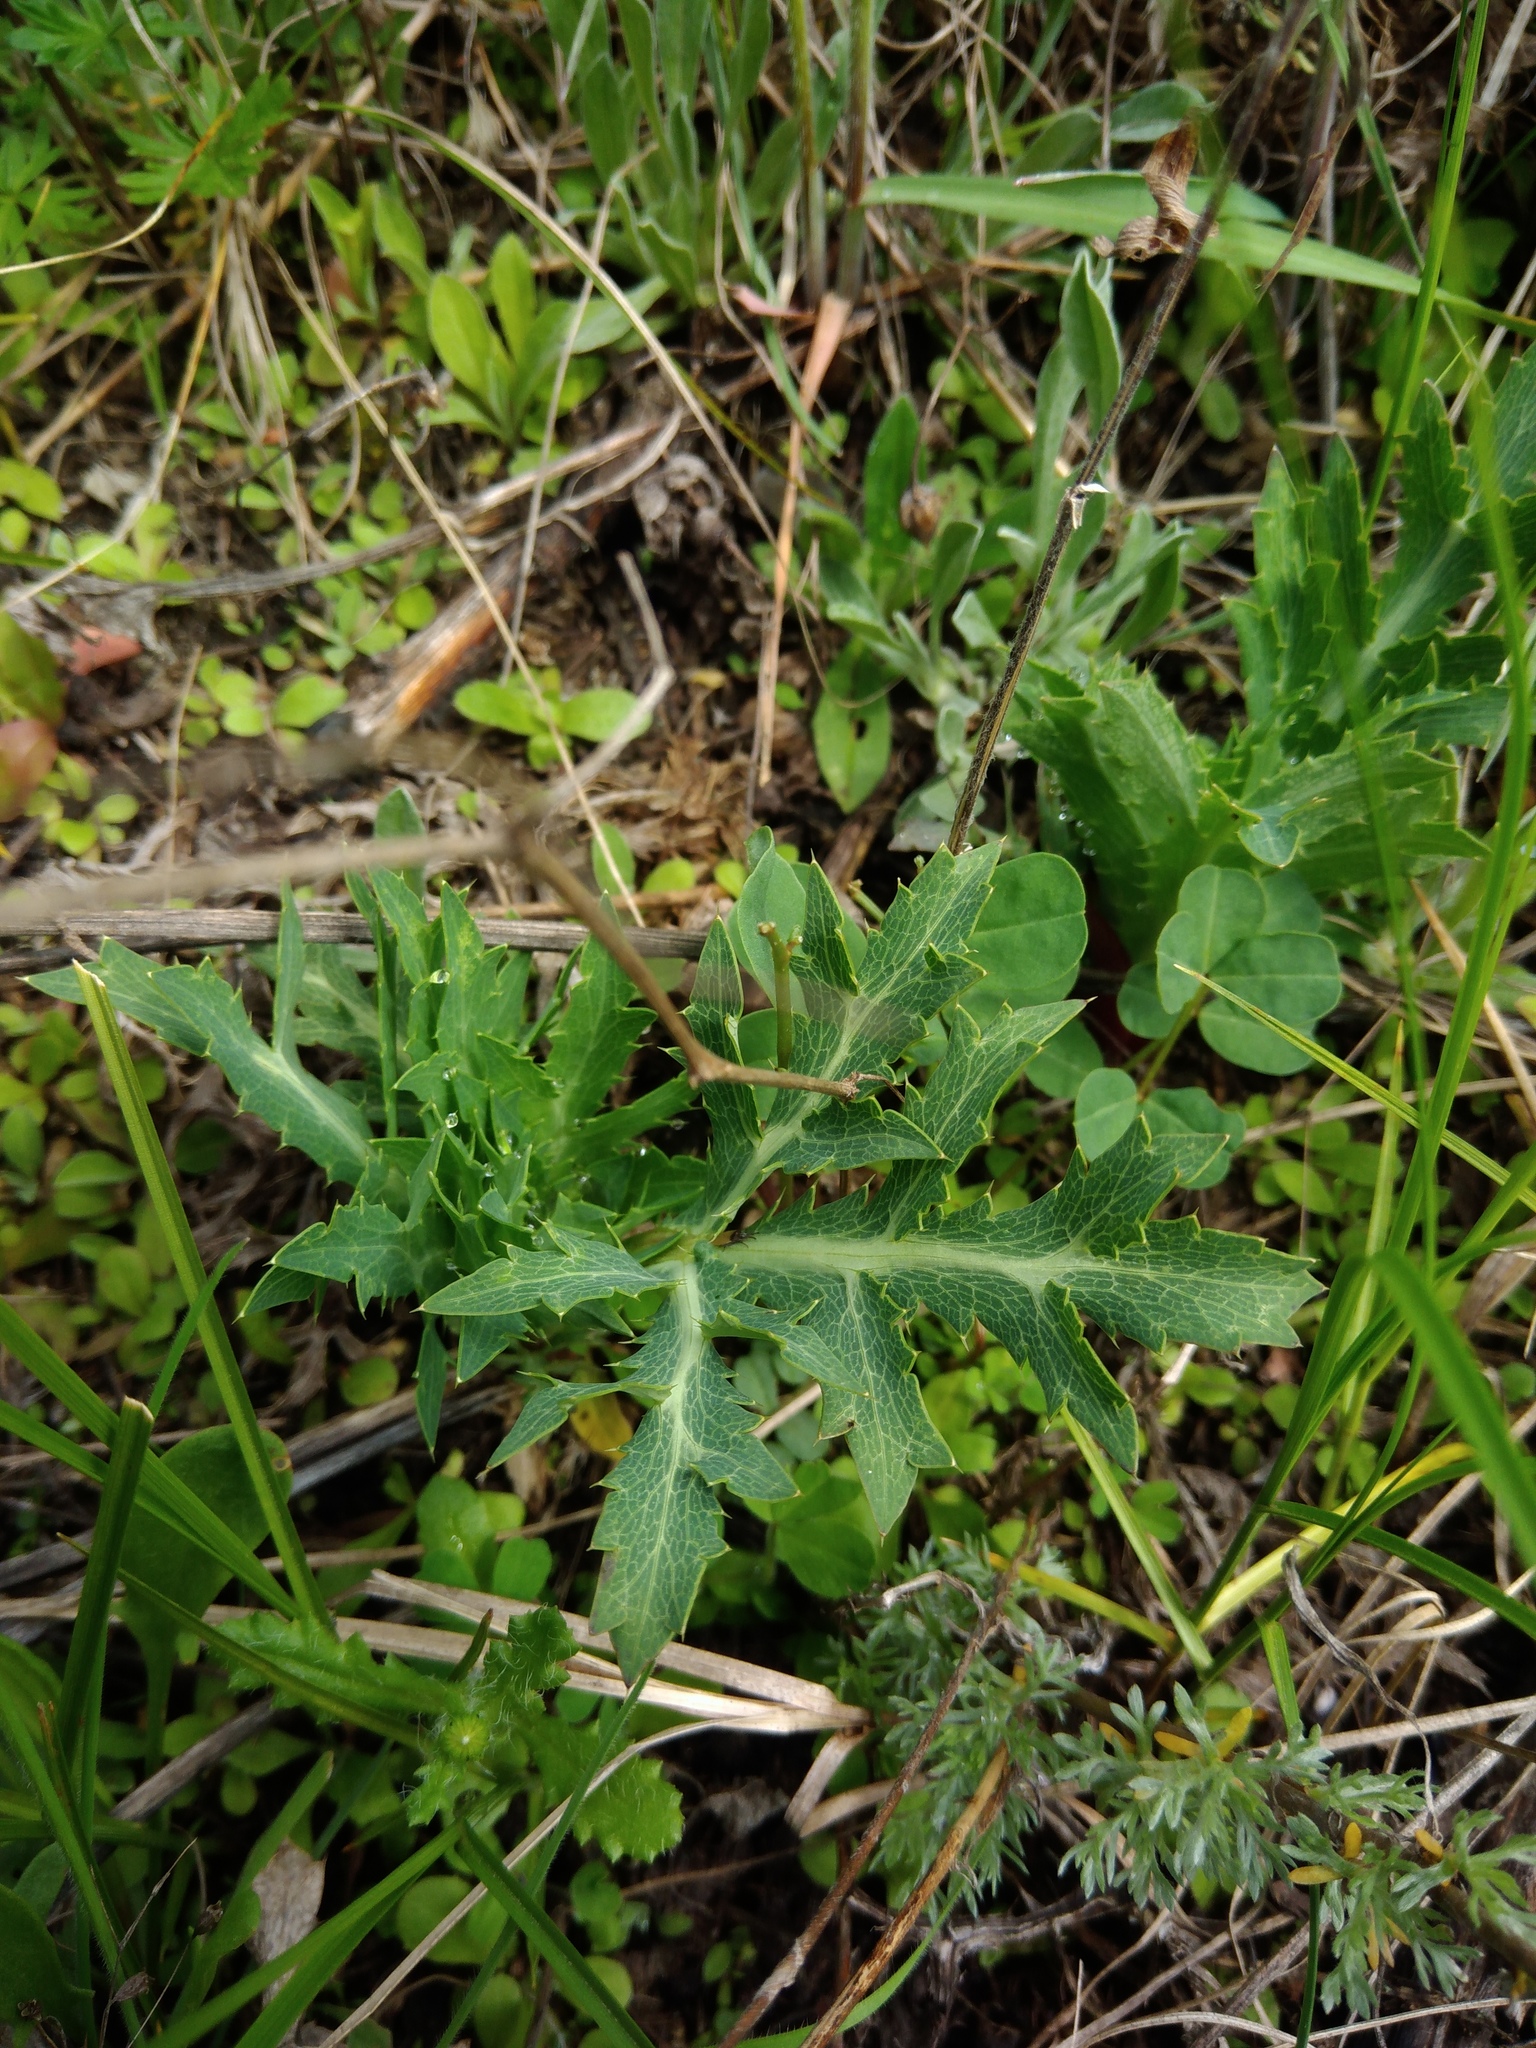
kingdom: Plantae
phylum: Tracheophyta
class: Magnoliopsida
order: Apiales
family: Apiaceae
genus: Eryngium
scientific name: Eryngium campestre
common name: Field eryngo
